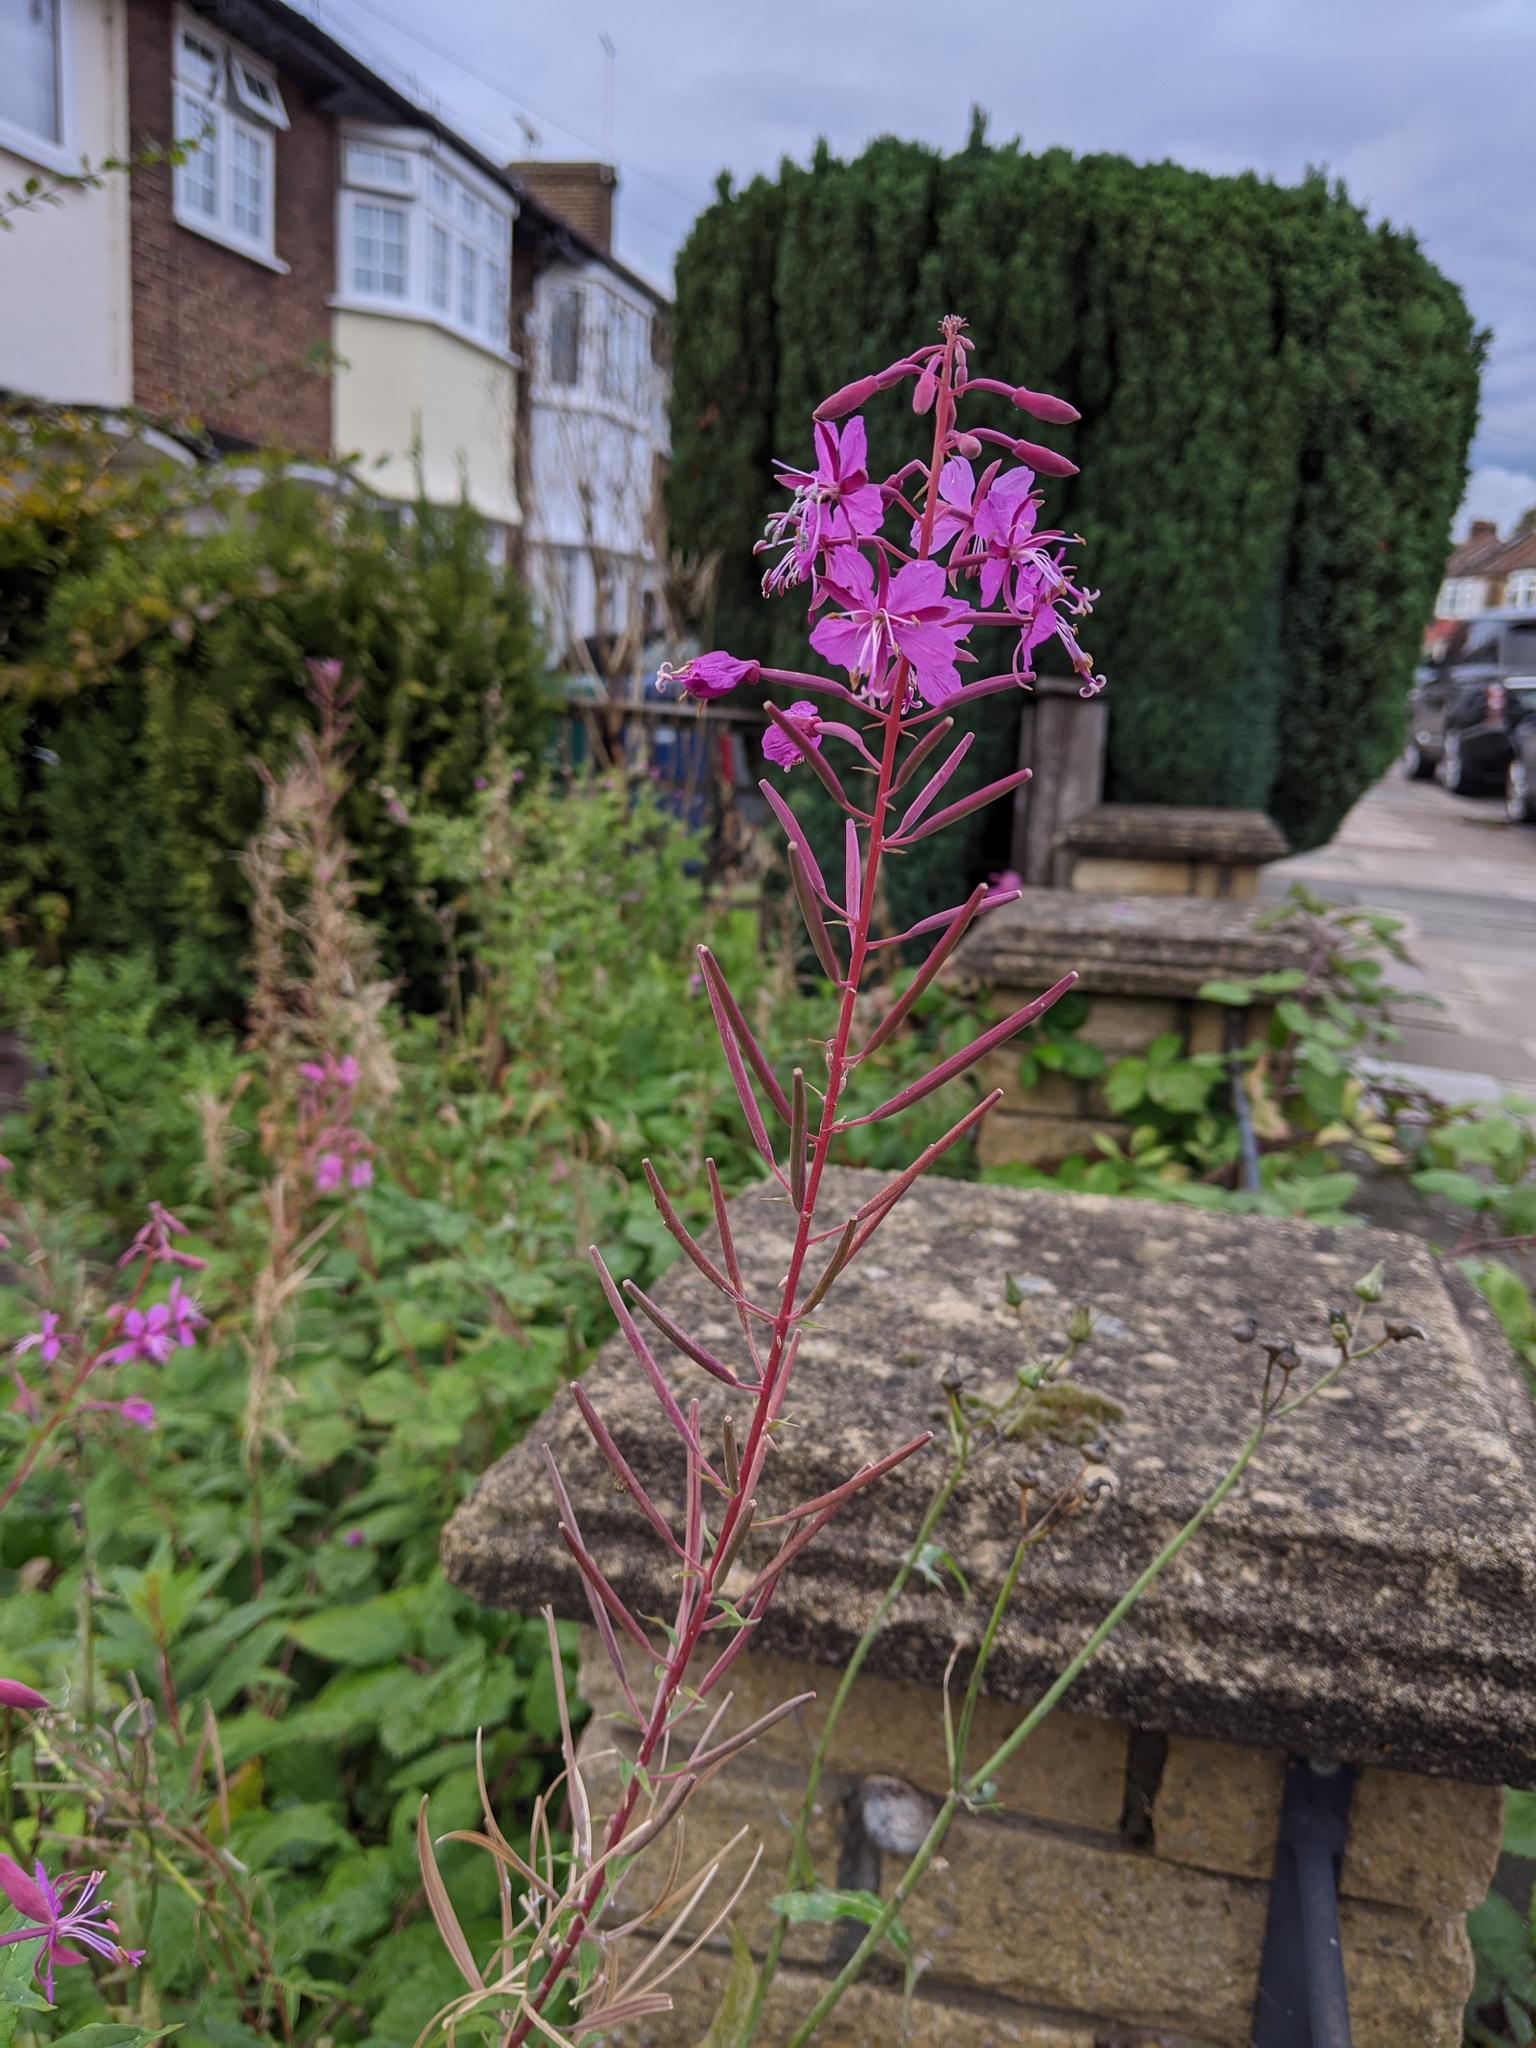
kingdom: Plantae
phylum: Tracheophyta
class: Magnoliopsida
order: Myrtales
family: Onagraceae
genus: Chamaenerion
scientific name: Chamaenerion angustifolium
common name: Fireweed
